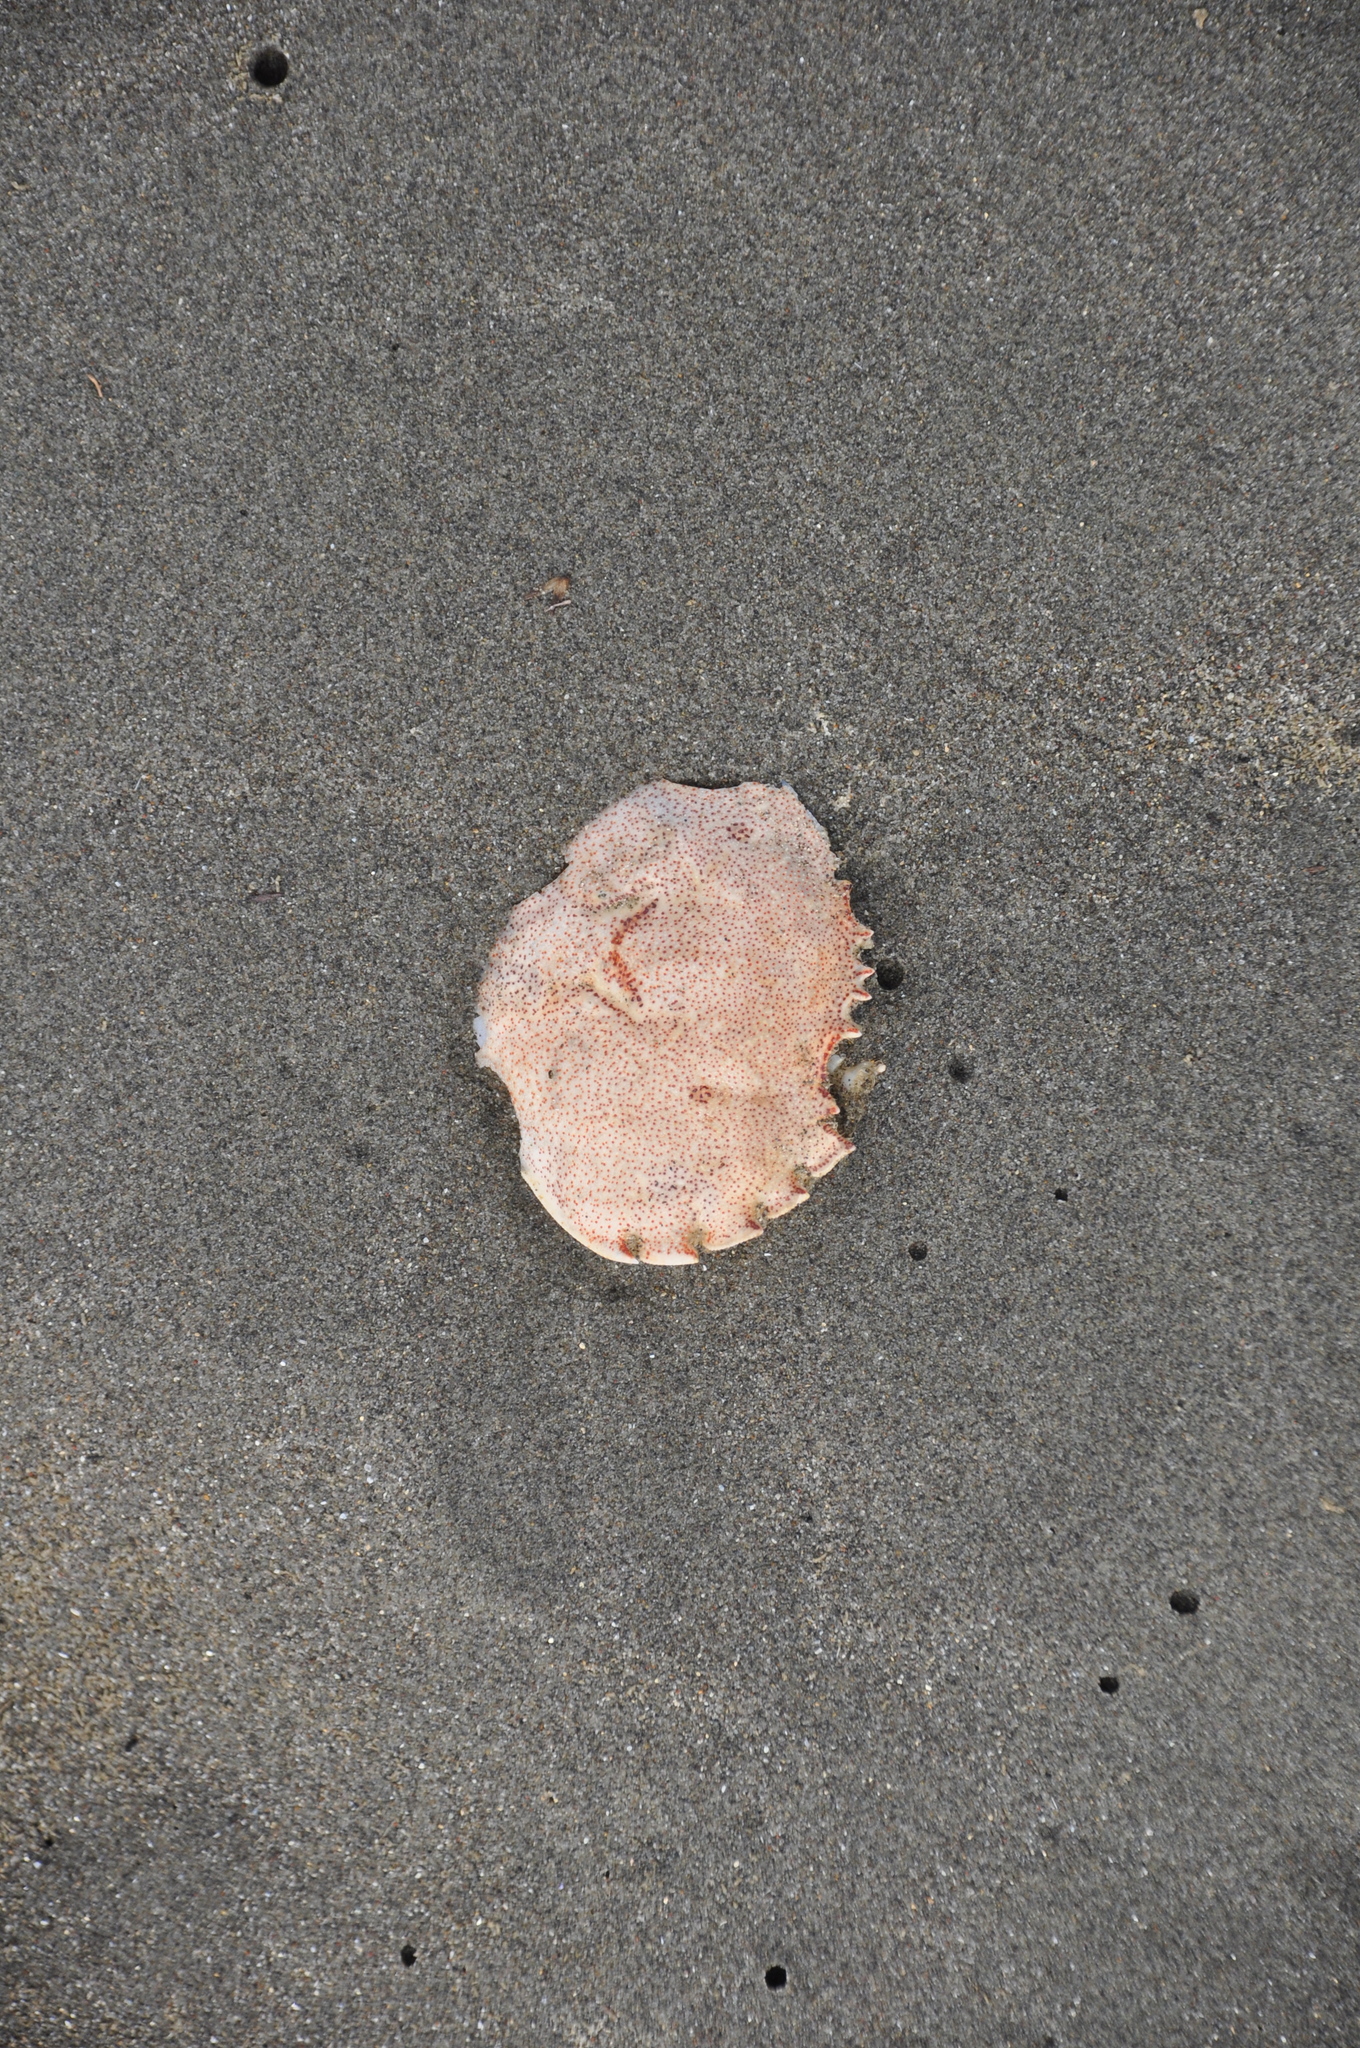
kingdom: Animalia
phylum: Arthropoda
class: Malacostraca
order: Decapoda
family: Ovalipidae
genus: Ovalipes
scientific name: Ovalipes catharus
